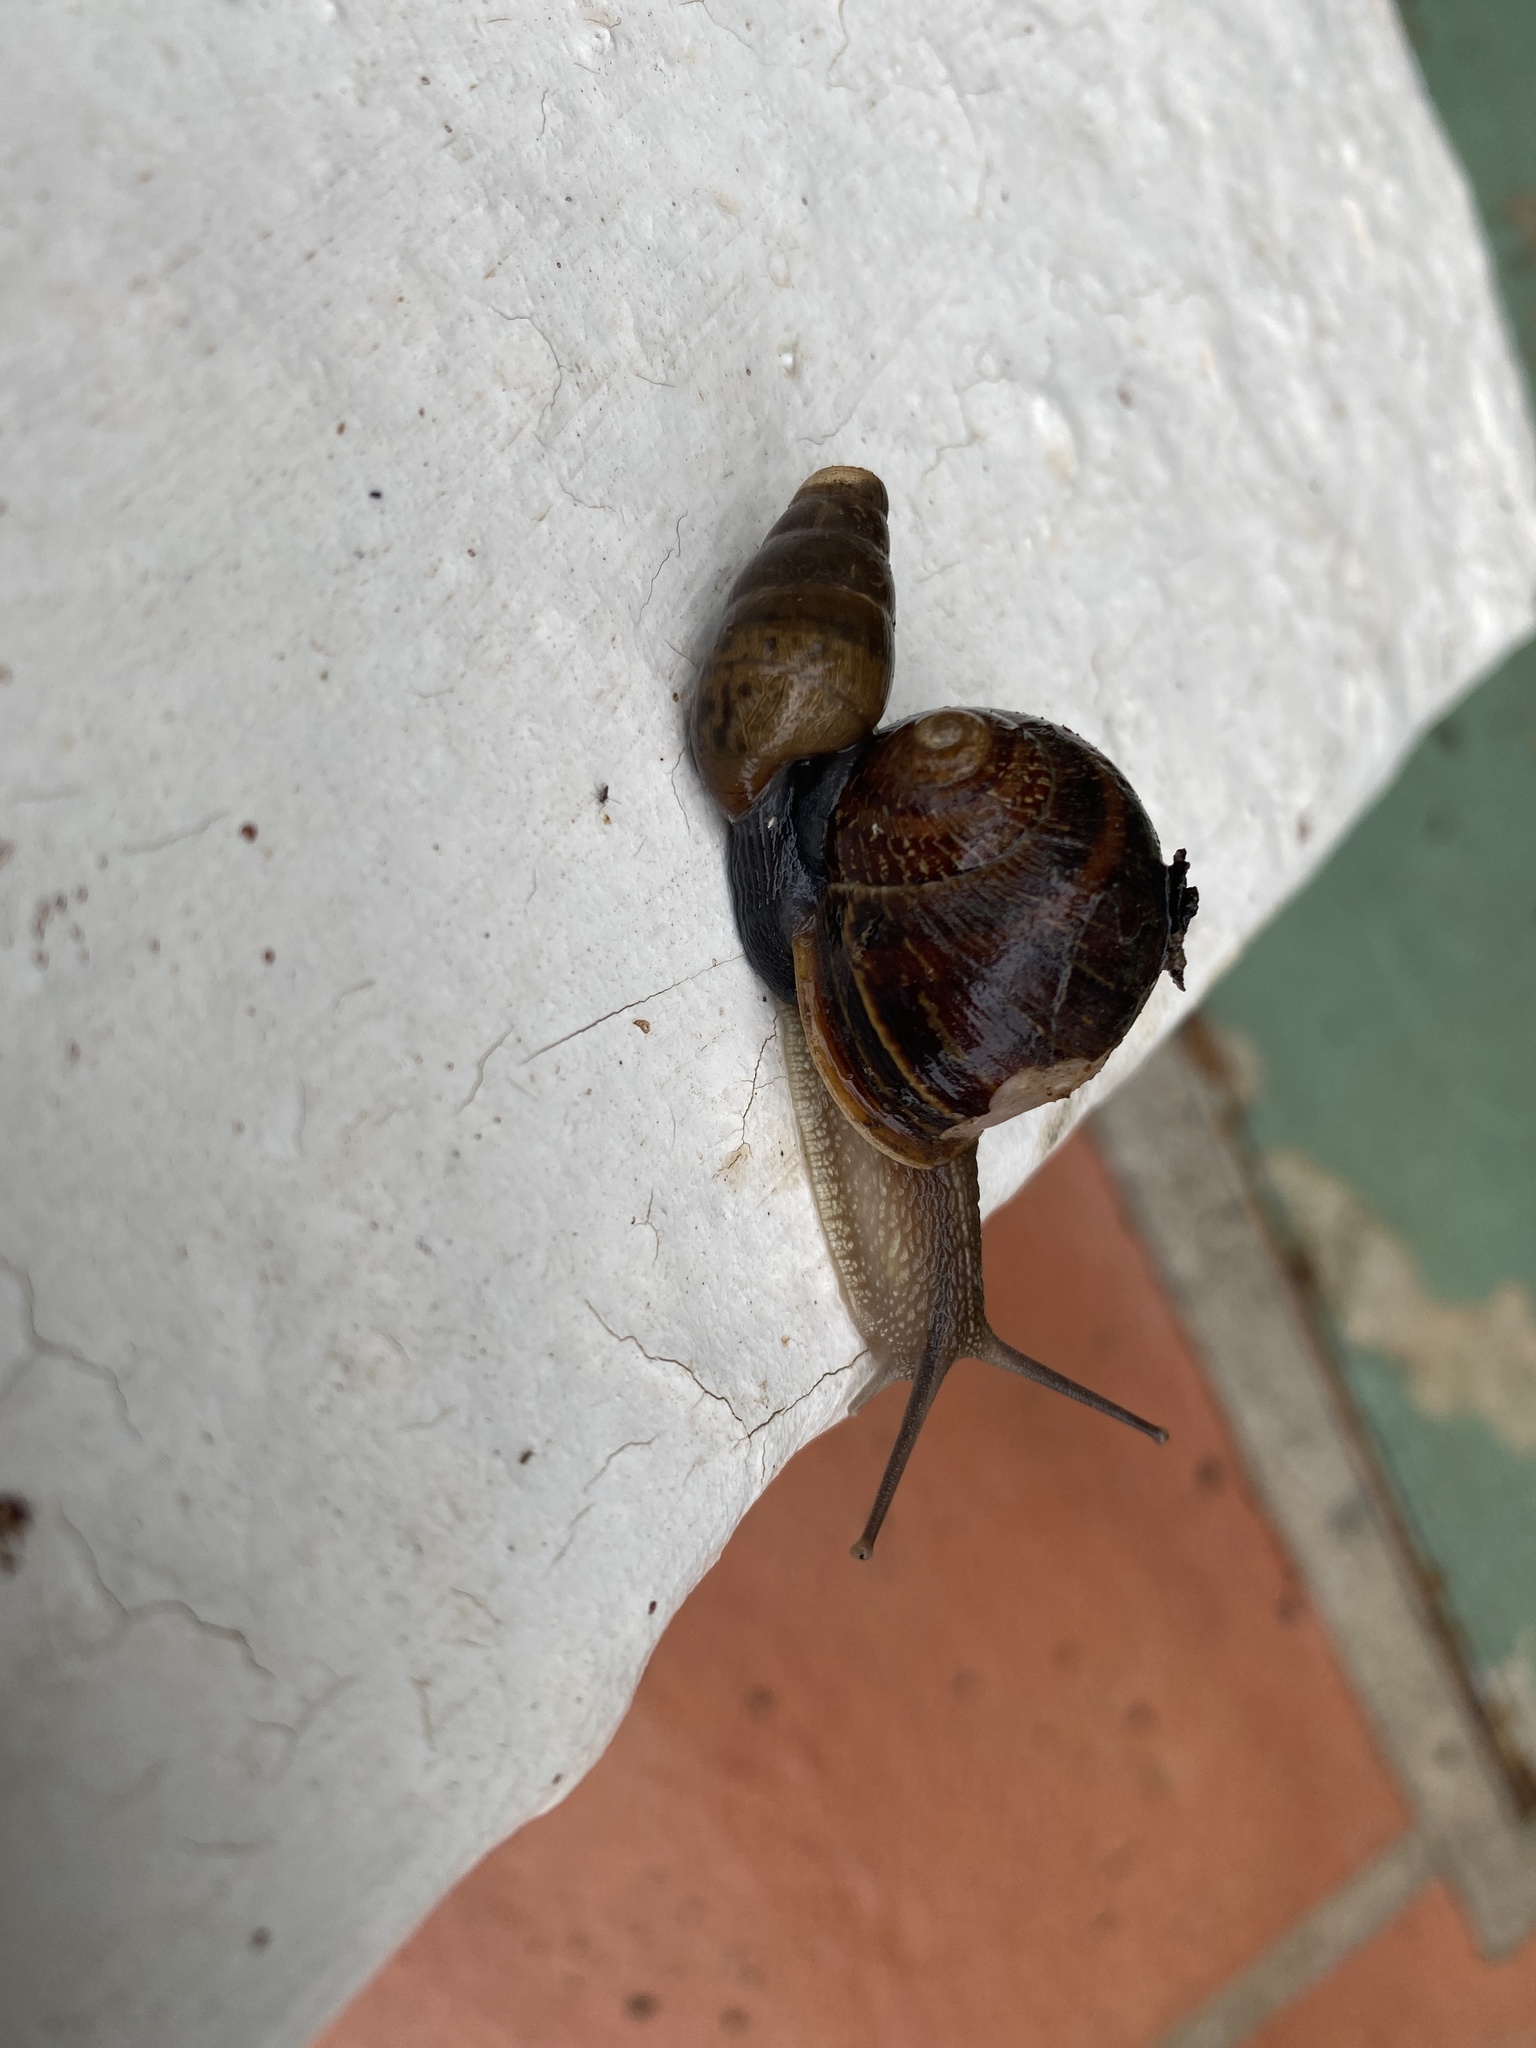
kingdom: Animalia
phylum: Mollusca
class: Gastropoda
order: Stylommatophora
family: Helicidae
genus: Cornu
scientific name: Cornu aspersum
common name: Brown garden snail
